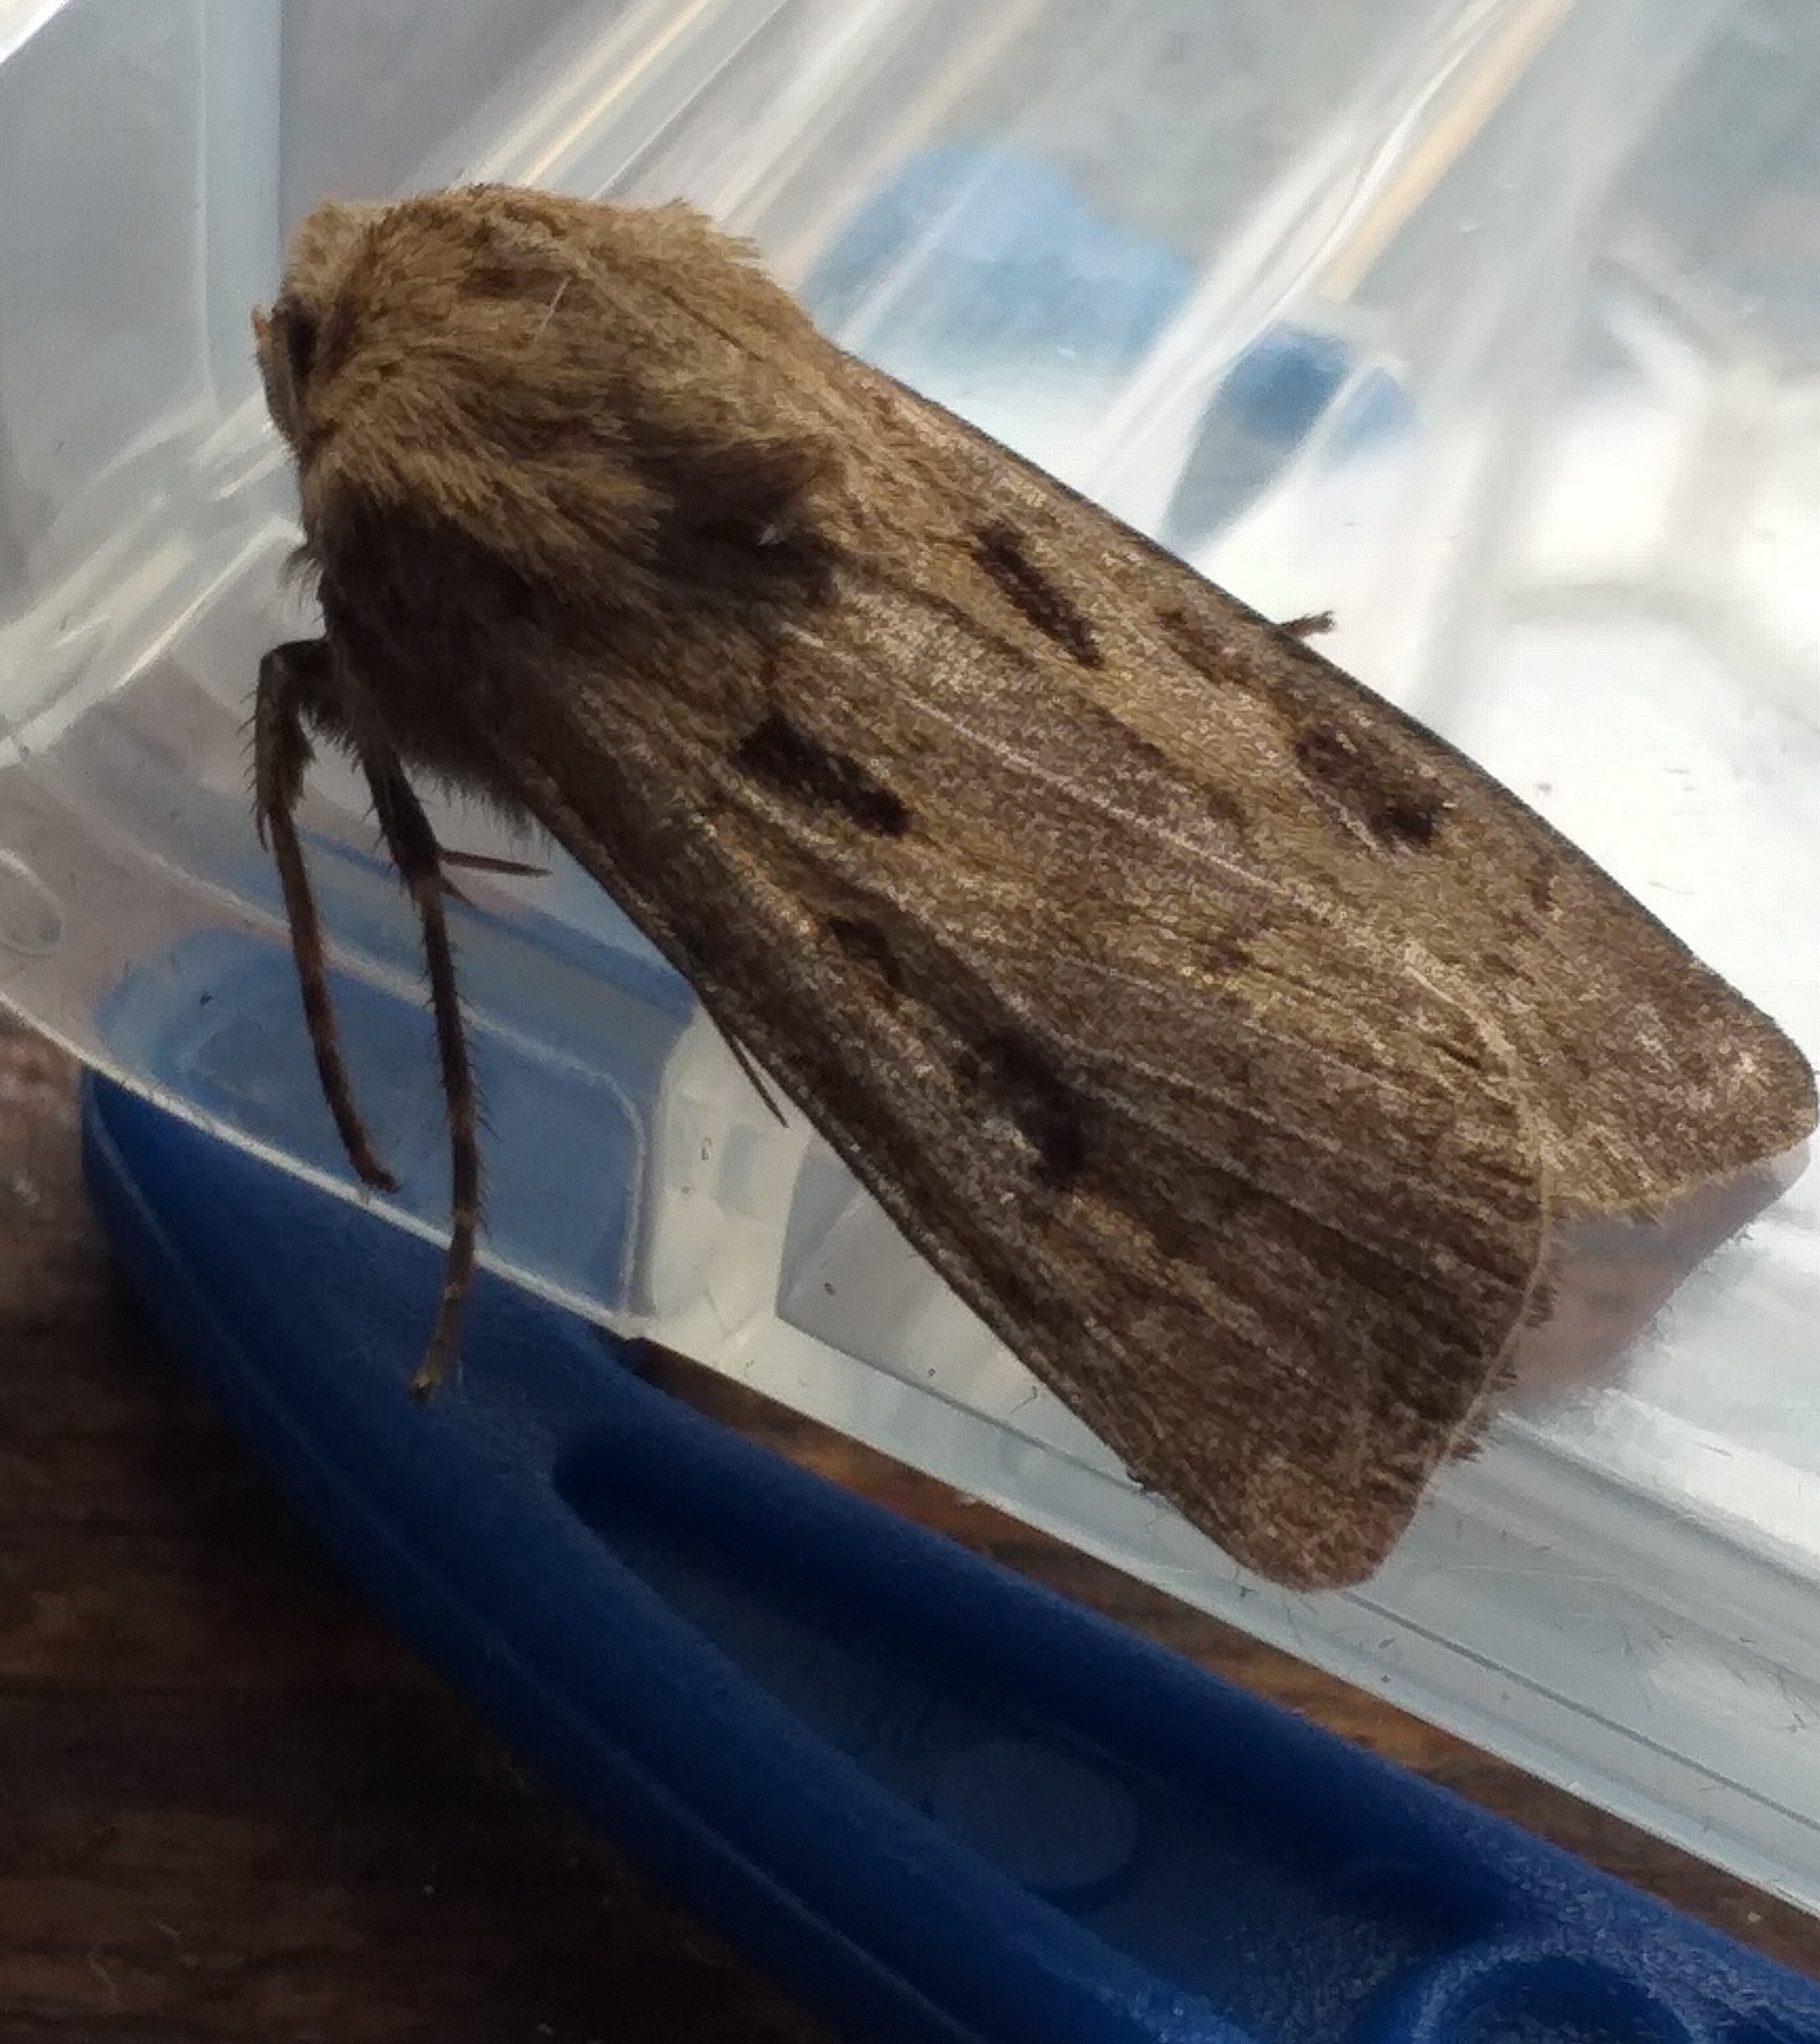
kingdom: Animalia
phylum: Arthropoda
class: Insecta
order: Lepidoptera
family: Noctuidae
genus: Agrotis
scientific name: Agrotis exclamationis
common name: Heart and dart
